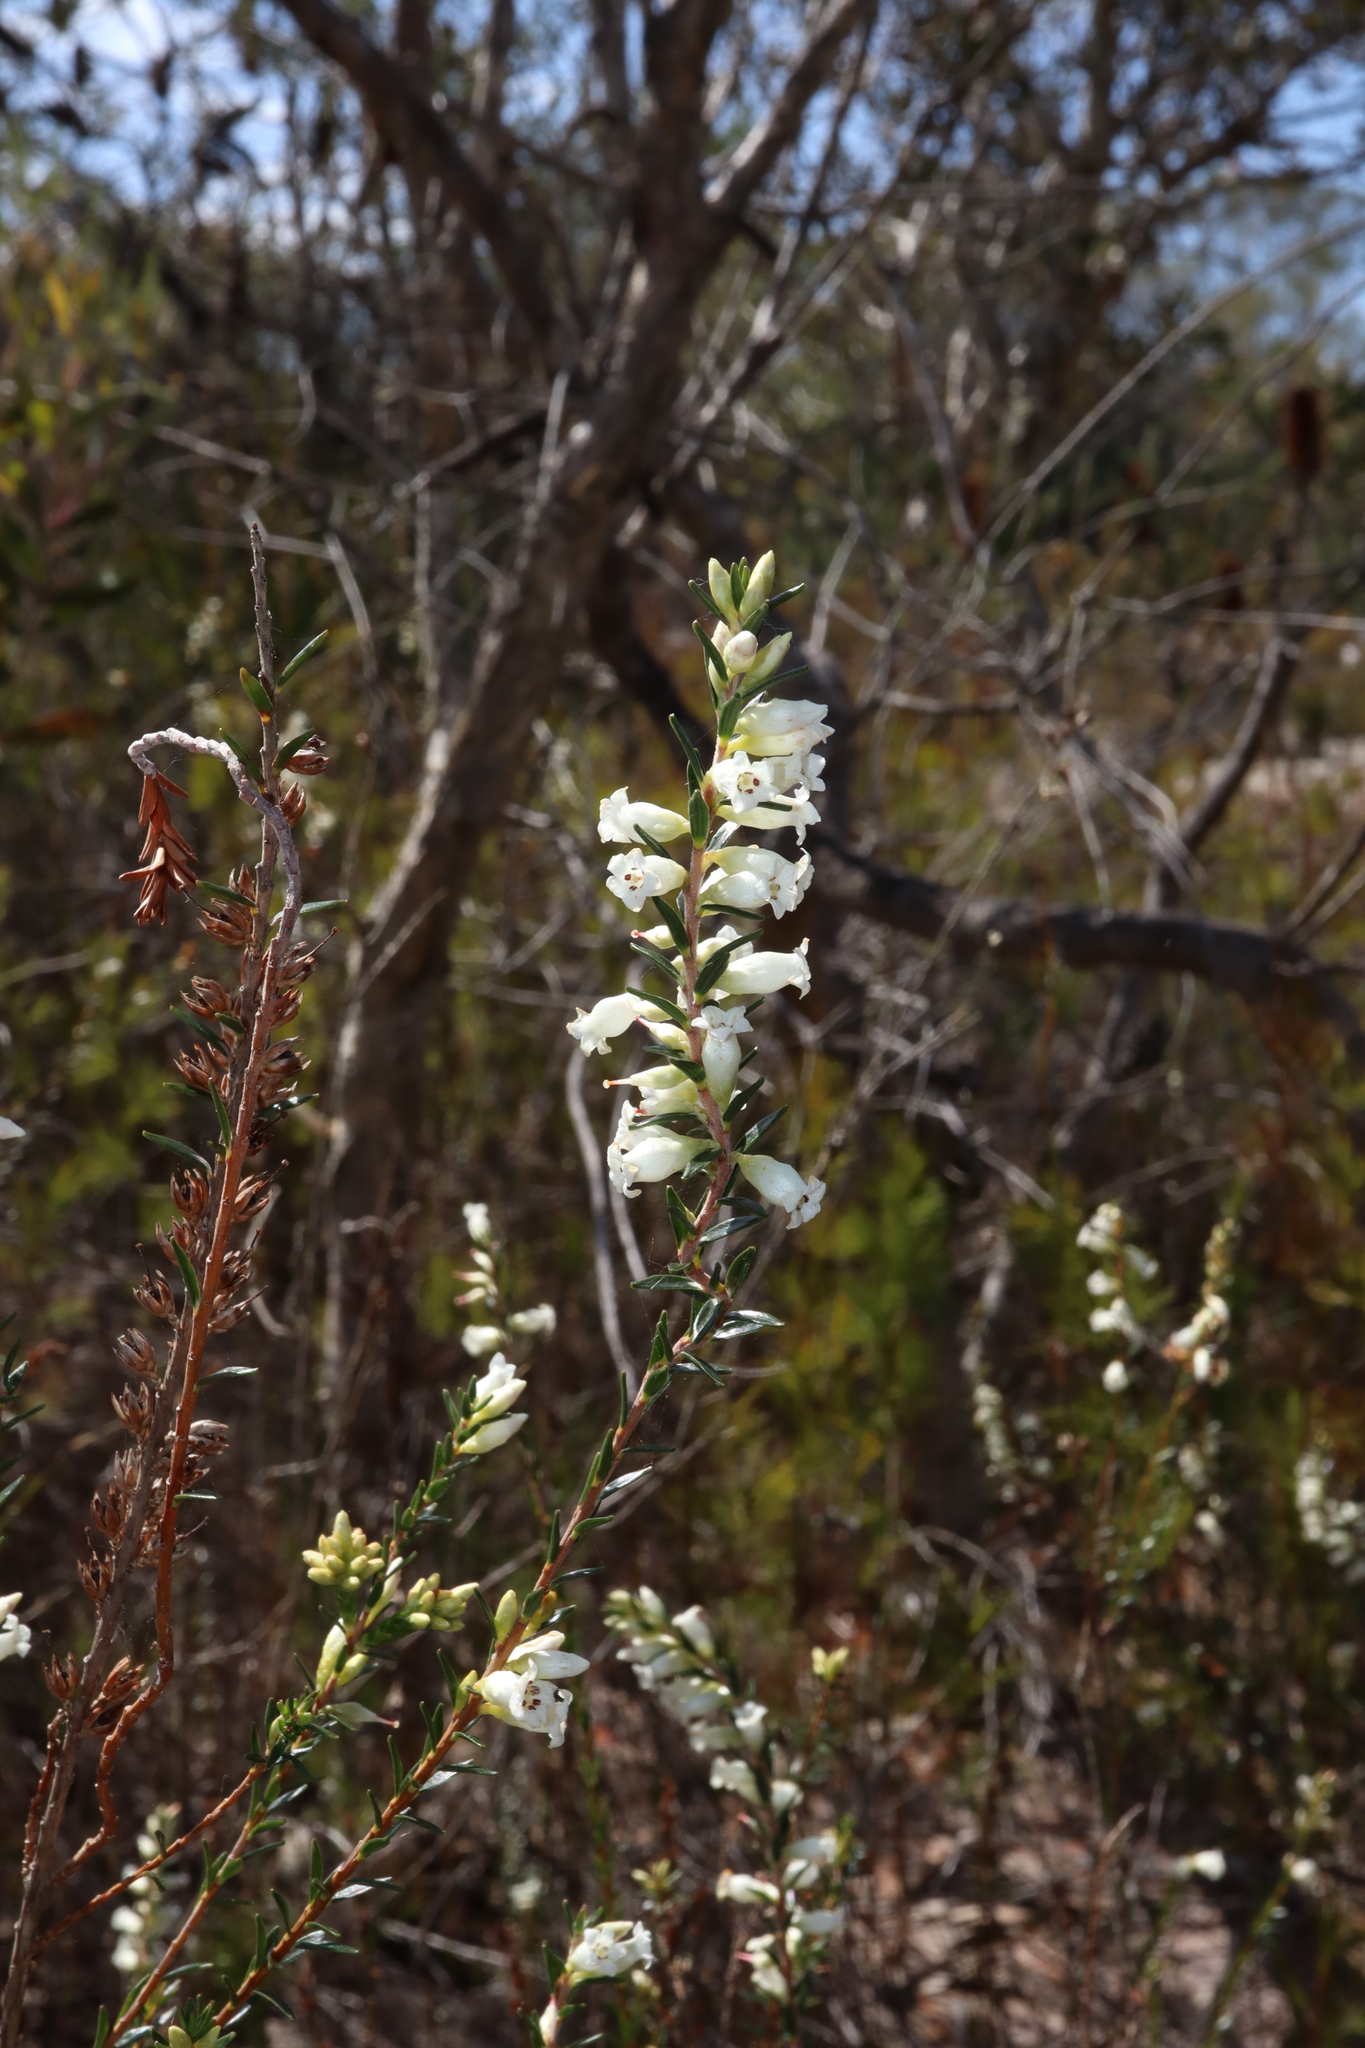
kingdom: Plantae
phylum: Tracheophyta
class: Magnoliopsida
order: Ericales
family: Ericaceae
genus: Epacris
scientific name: Epacris obtusifolia
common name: Blunt-leaf australian-heath
